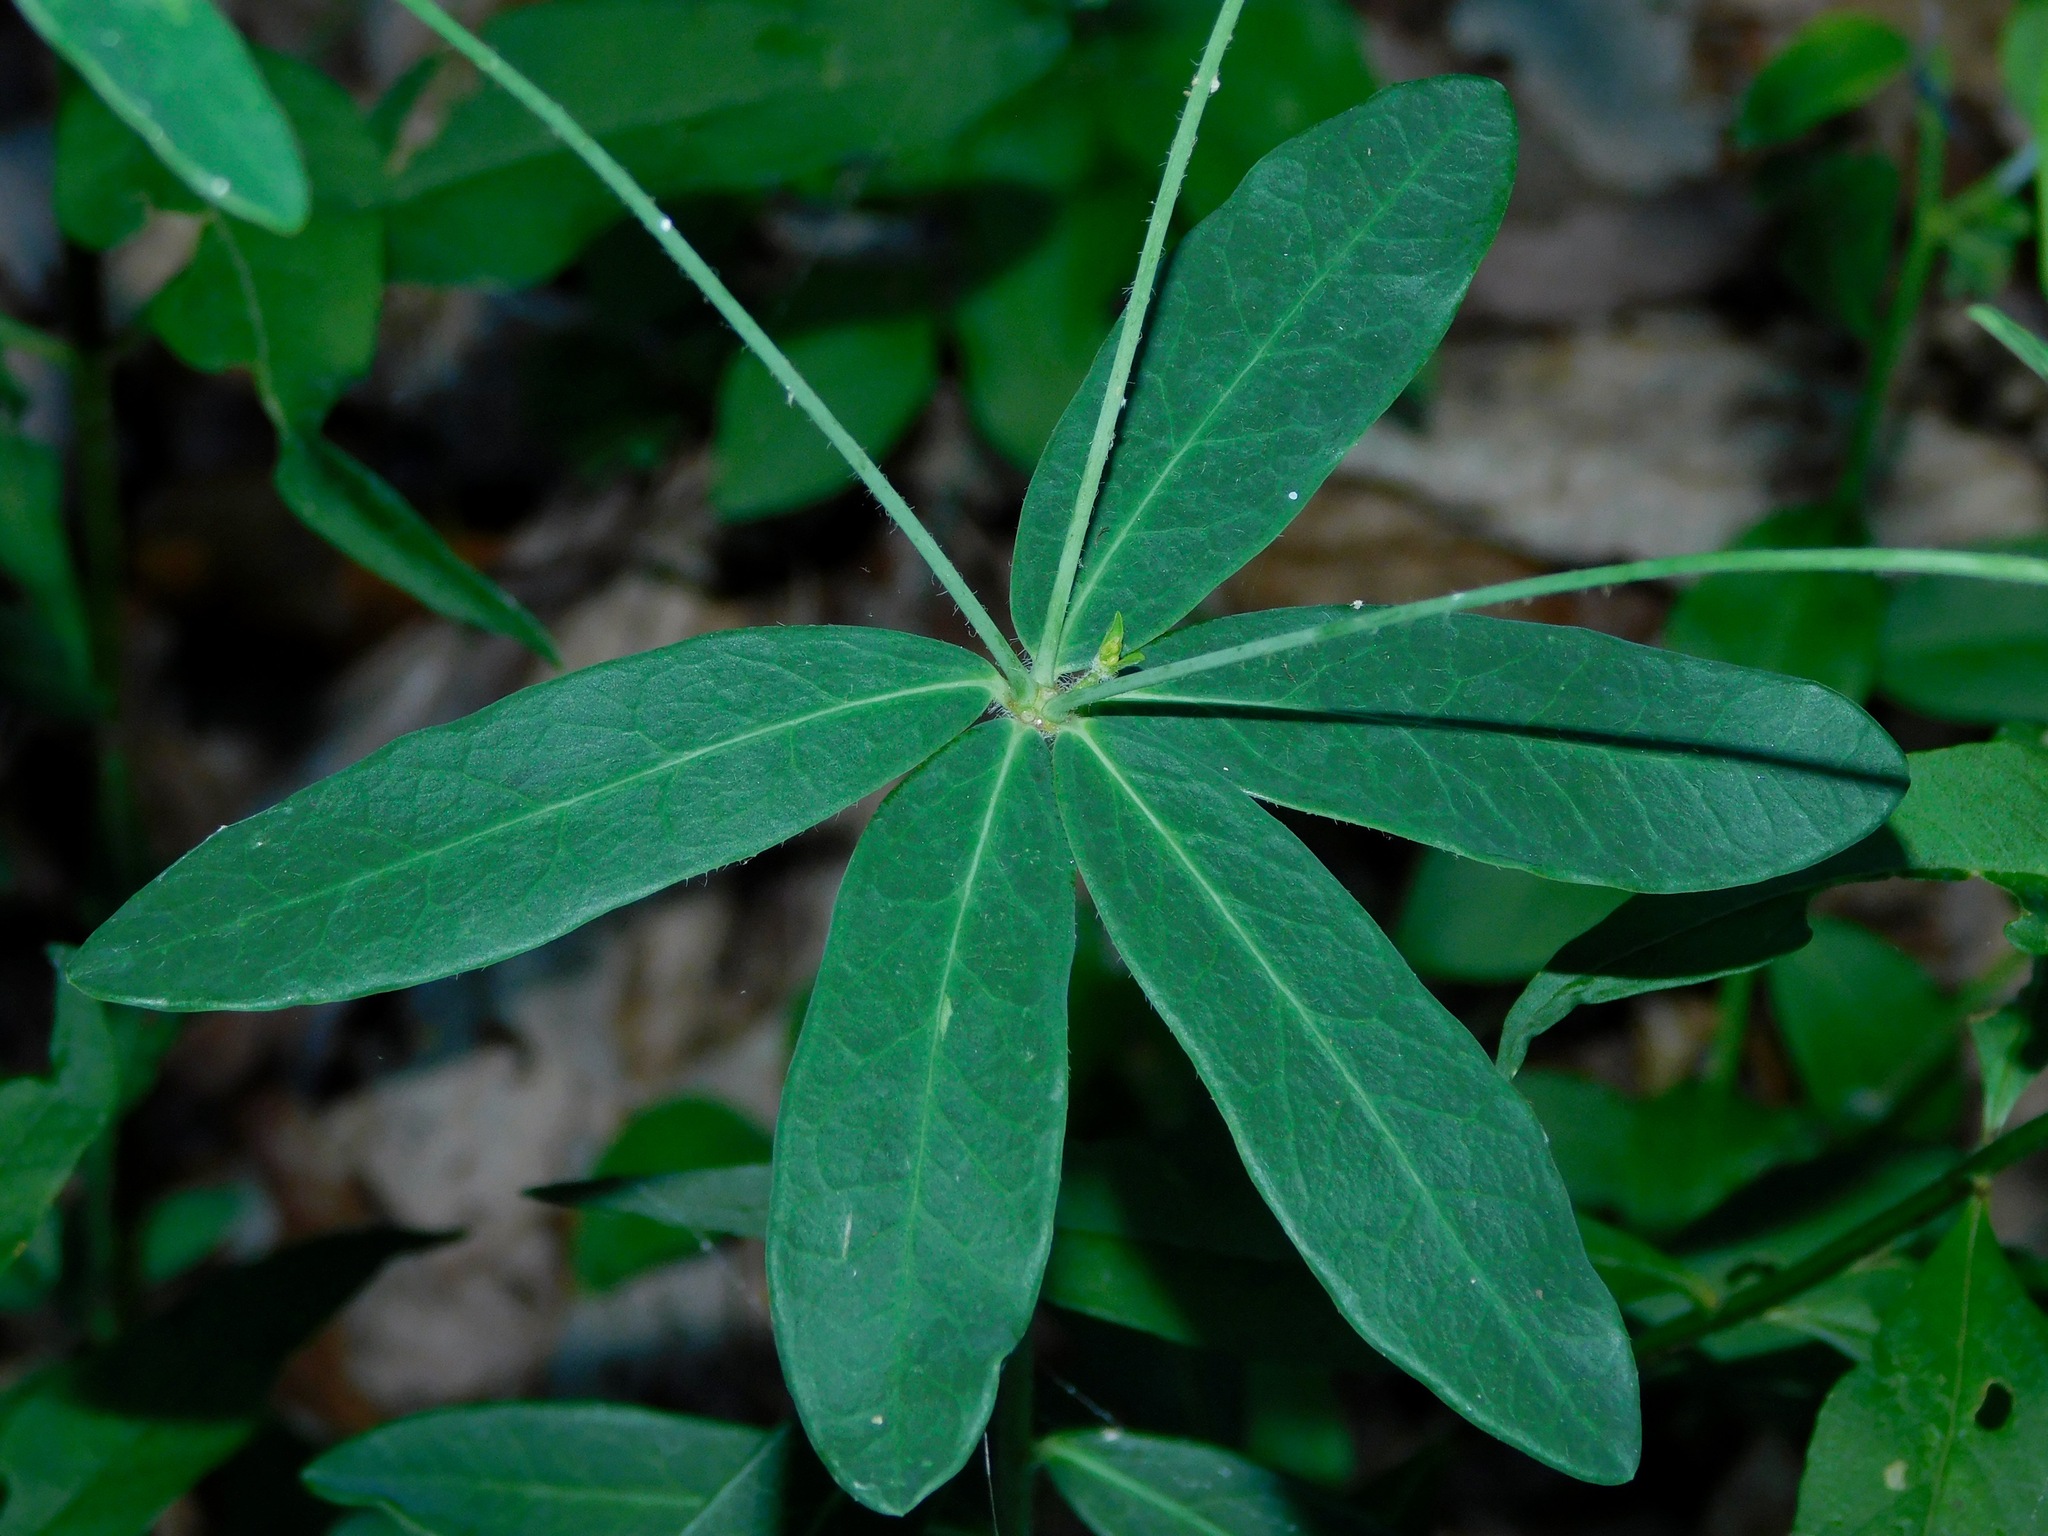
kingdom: Plantae
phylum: Tracheophyta
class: Magnoliopsida
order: Malpighiales
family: Euphorbiaceae
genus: Euphorbia
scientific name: Euphorbia pubentissima
